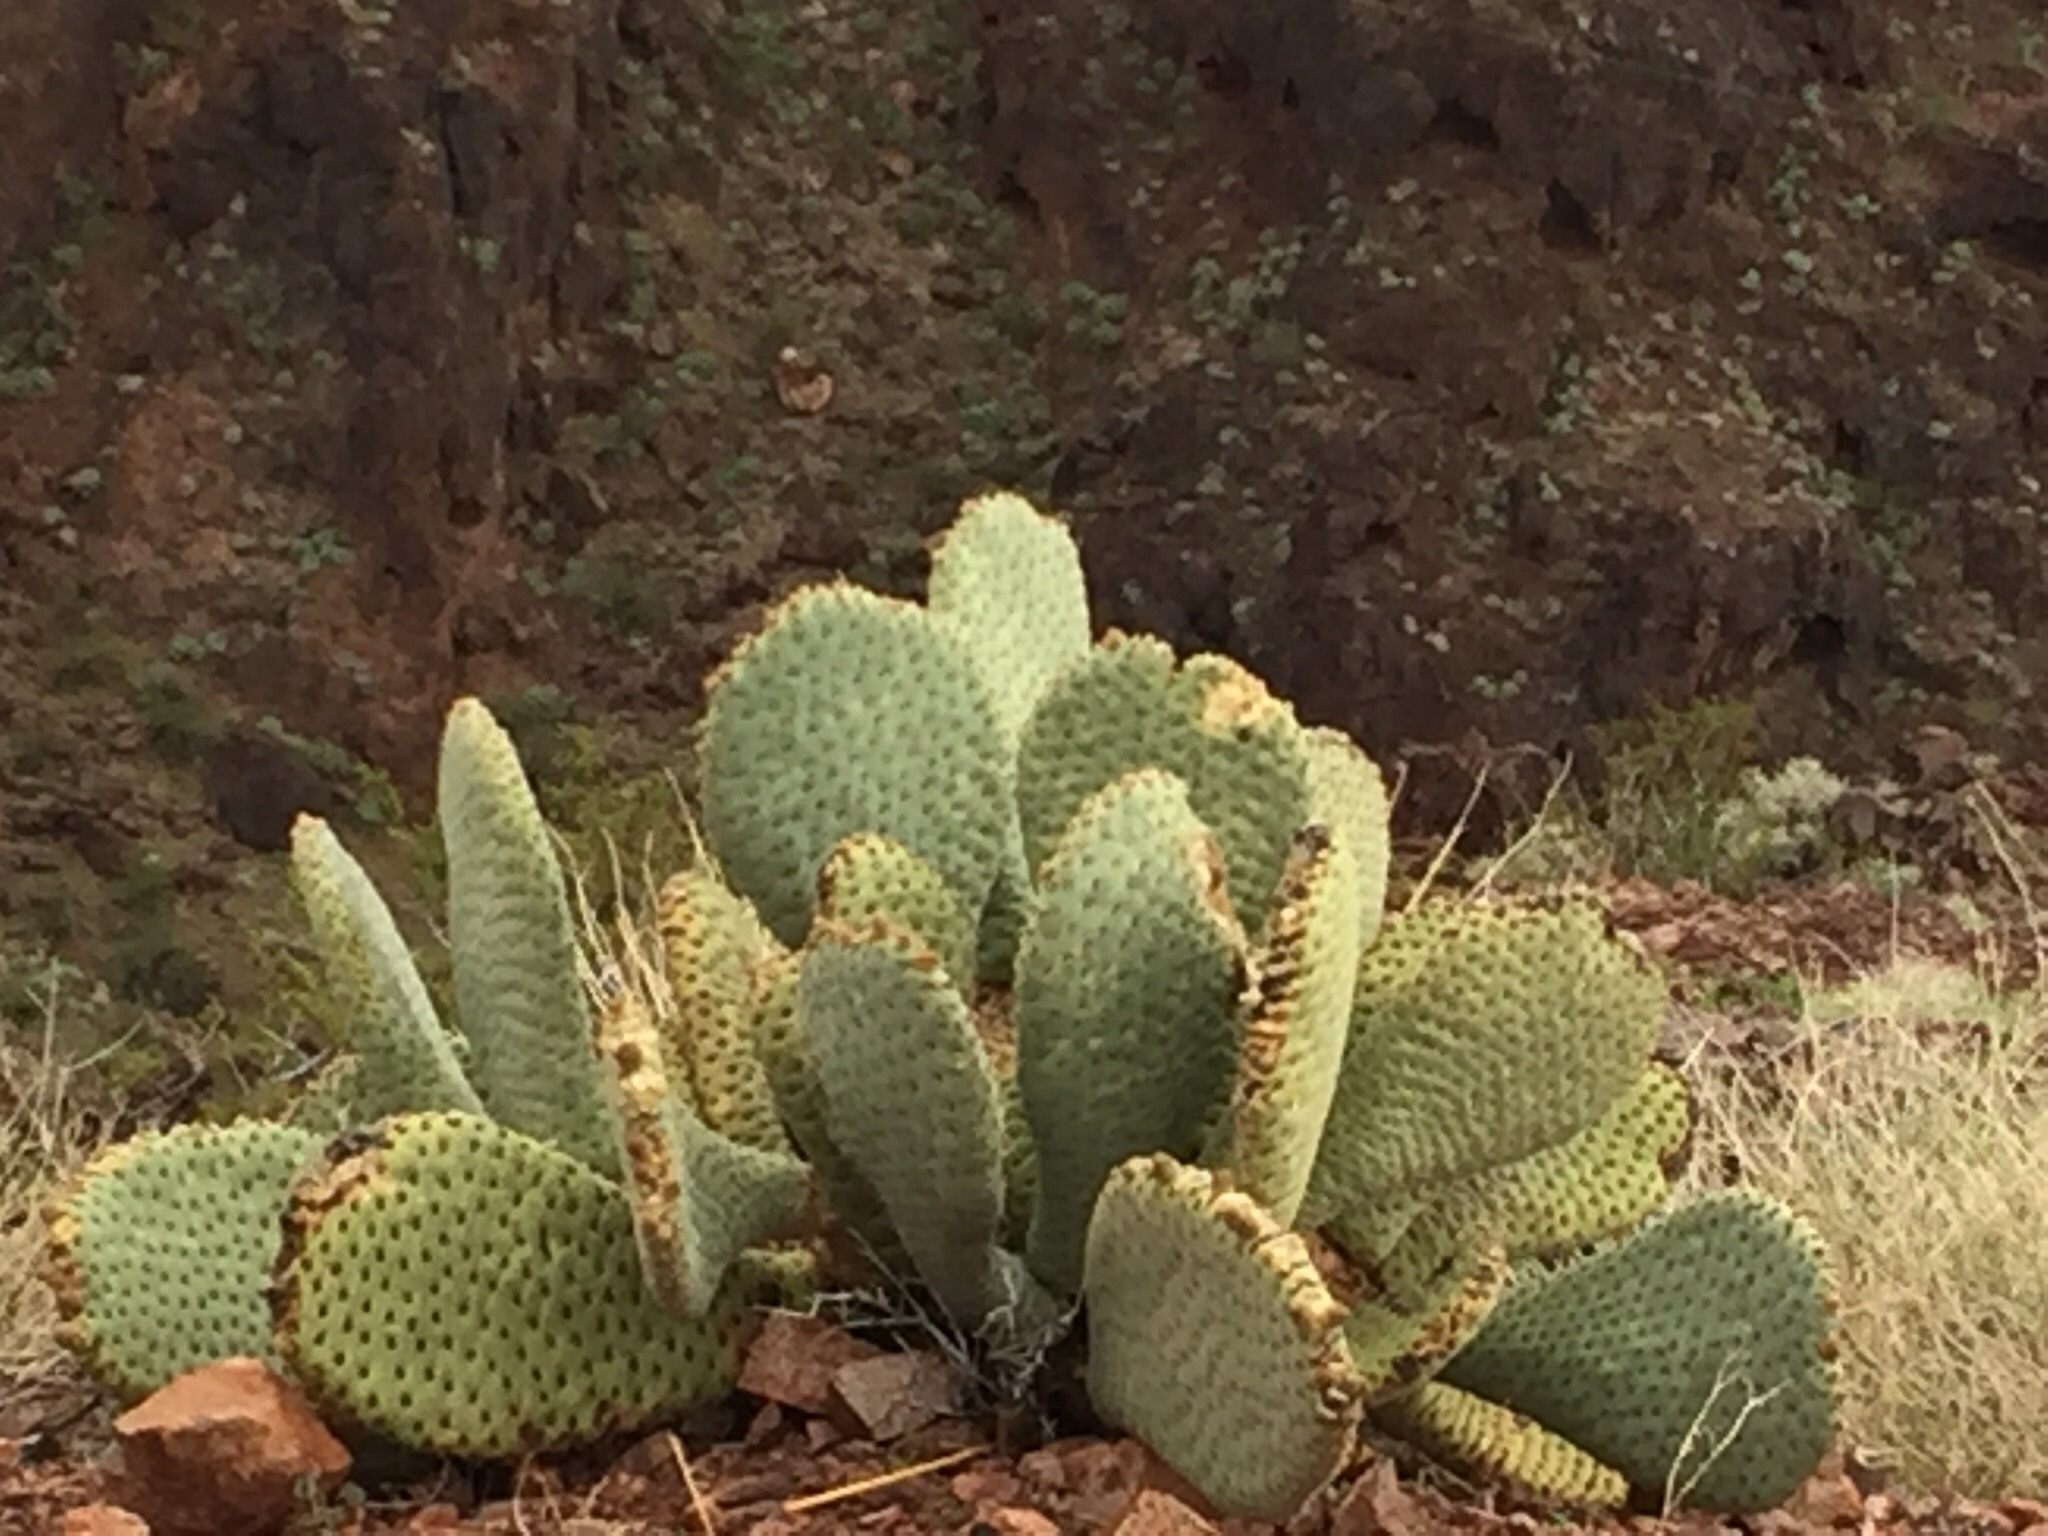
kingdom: Plantae
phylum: Tracheophyta
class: Magnoliopsida
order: Caryophyllales
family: Cactaceae
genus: Opuntia
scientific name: Opuntia basilaris
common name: Beavertail prickly-pear
